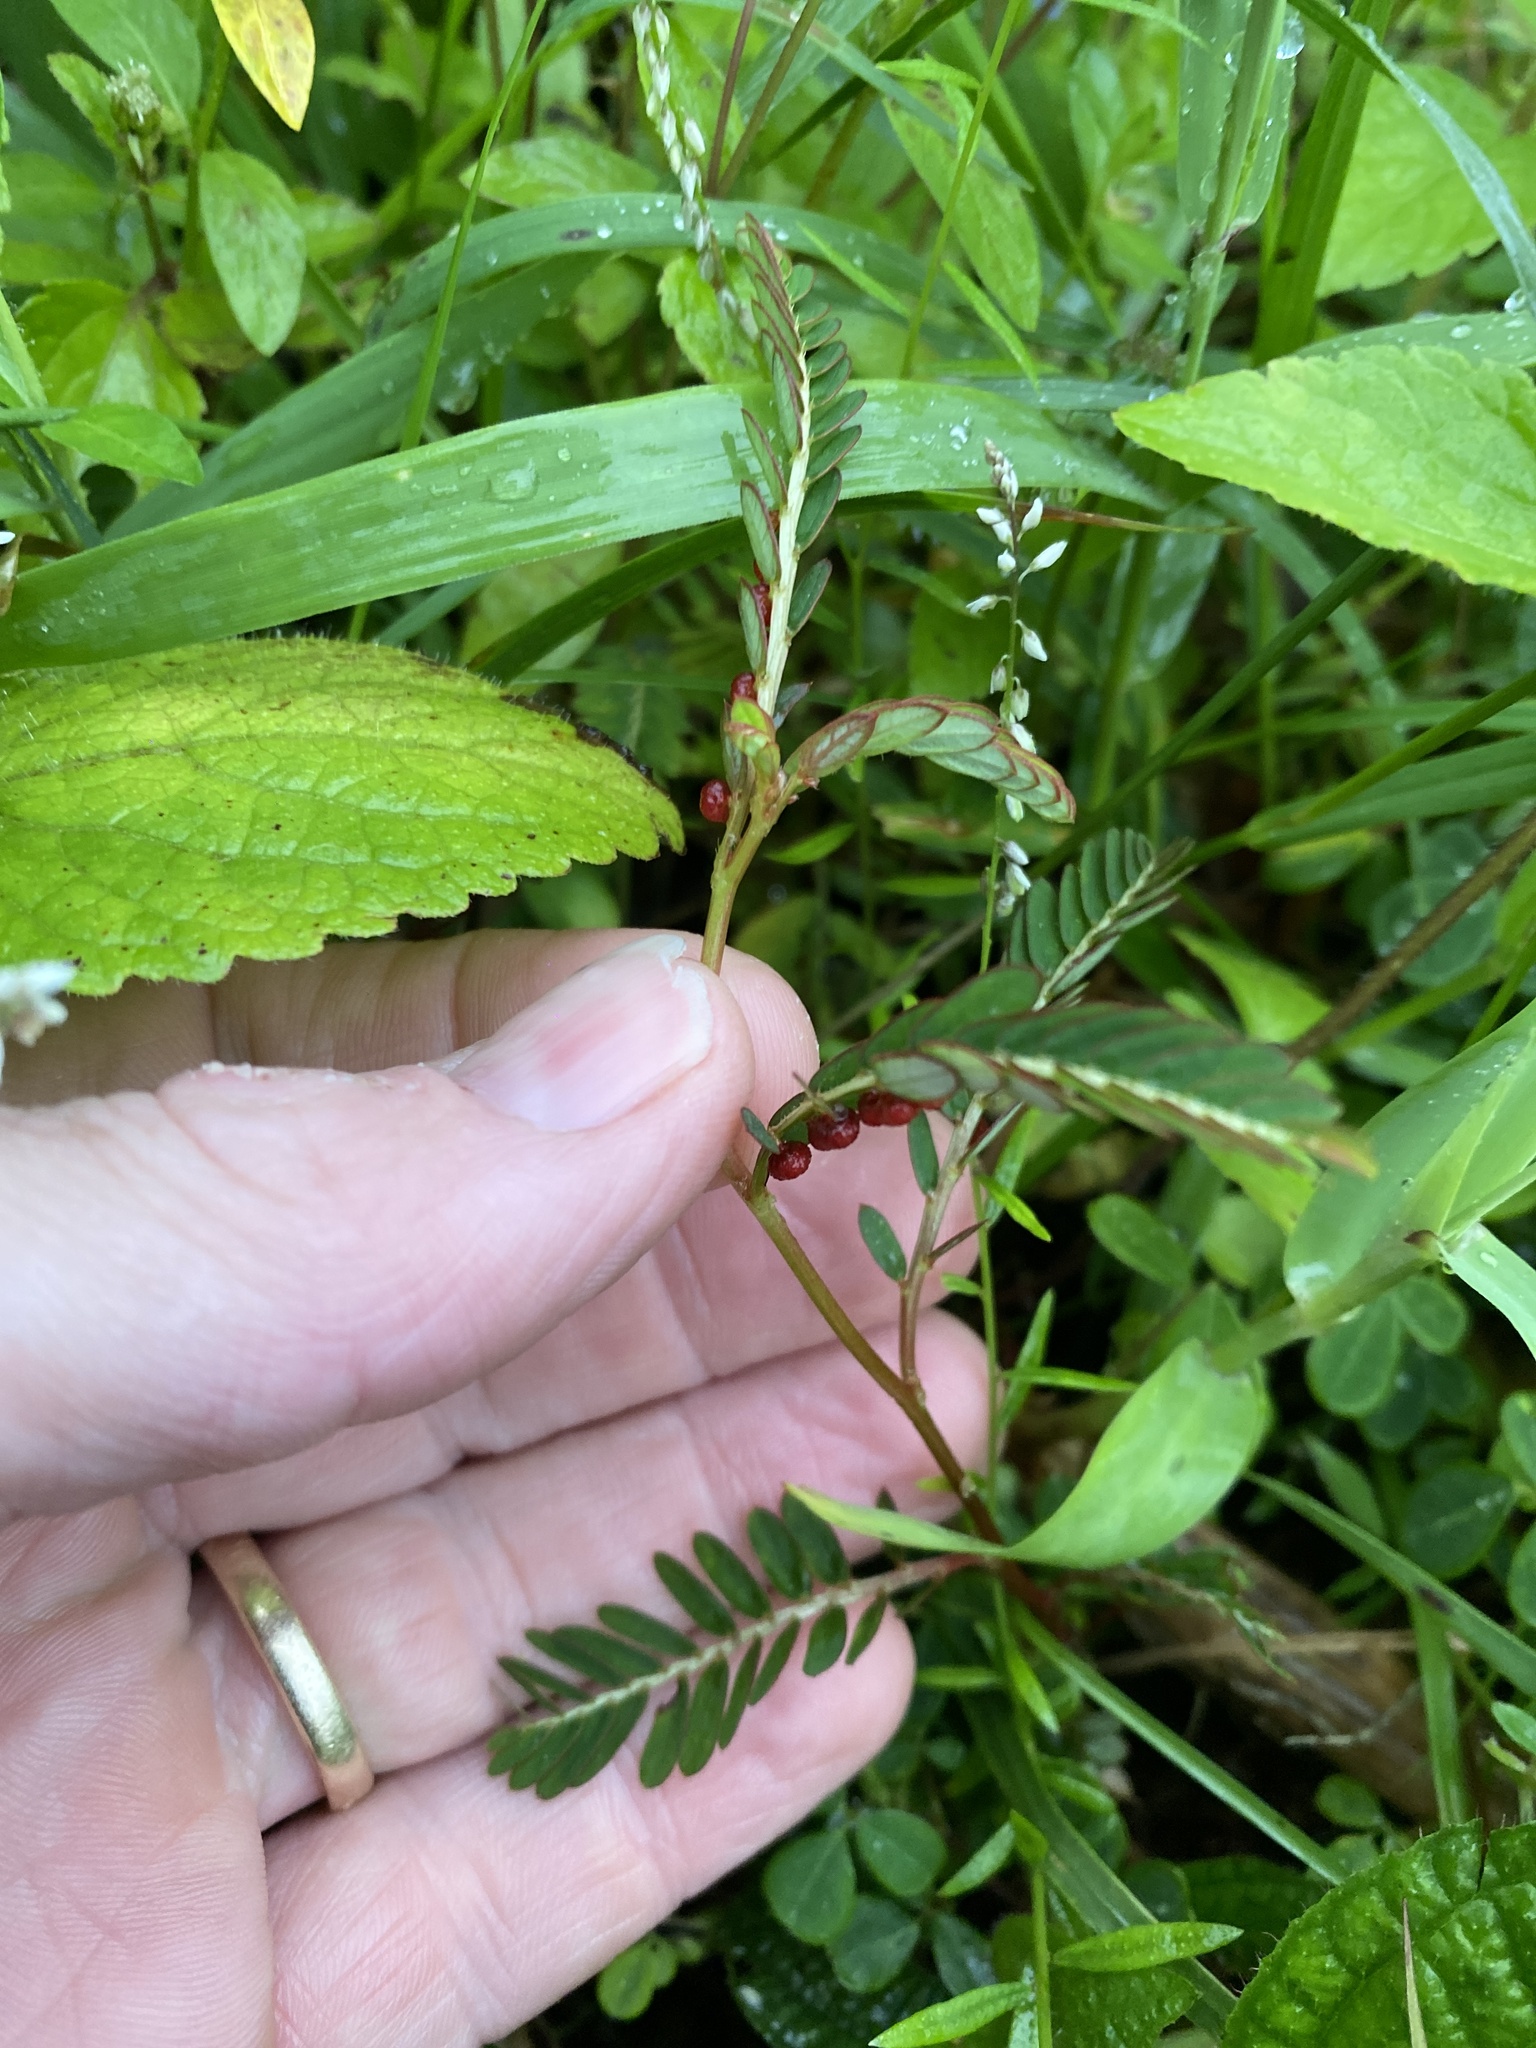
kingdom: Plantae
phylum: Tracheophyta
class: Magnoliopsida
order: Fabales
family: Fabaceae
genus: Mimosa
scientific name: Mimosa pudica
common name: Sensitive plant
